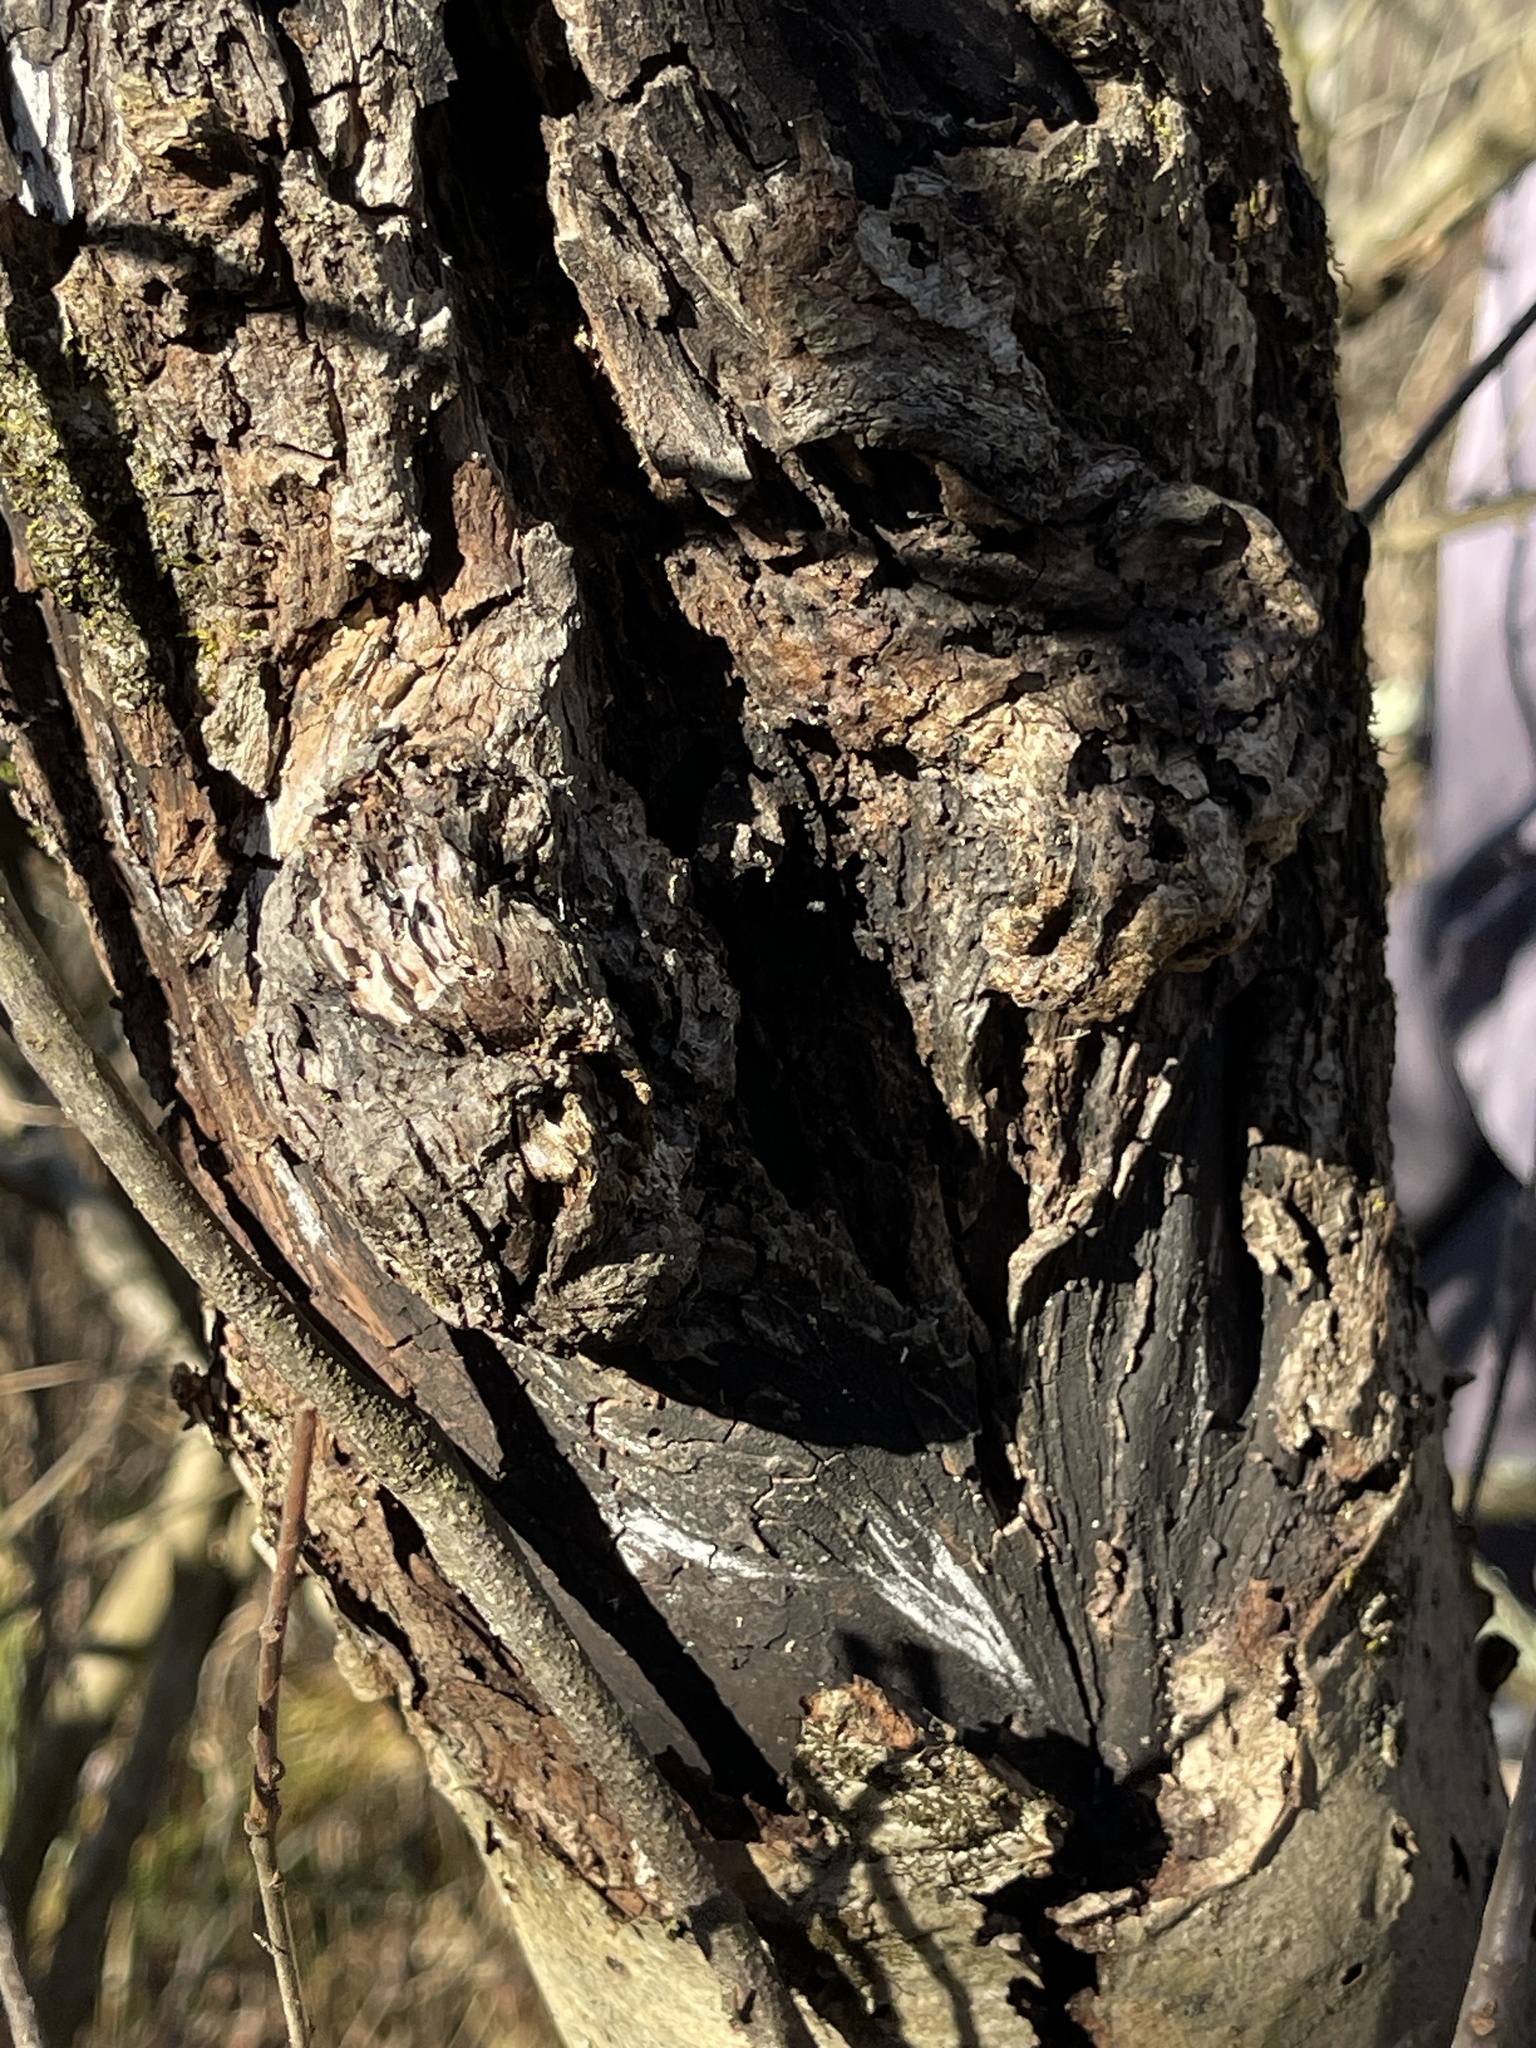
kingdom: Plantae
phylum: Tracheophyta
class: Magnoliopsida
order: Rosales
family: Rosaceae
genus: Sorbus
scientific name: Sorbus decora
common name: Northern mountain-ash
